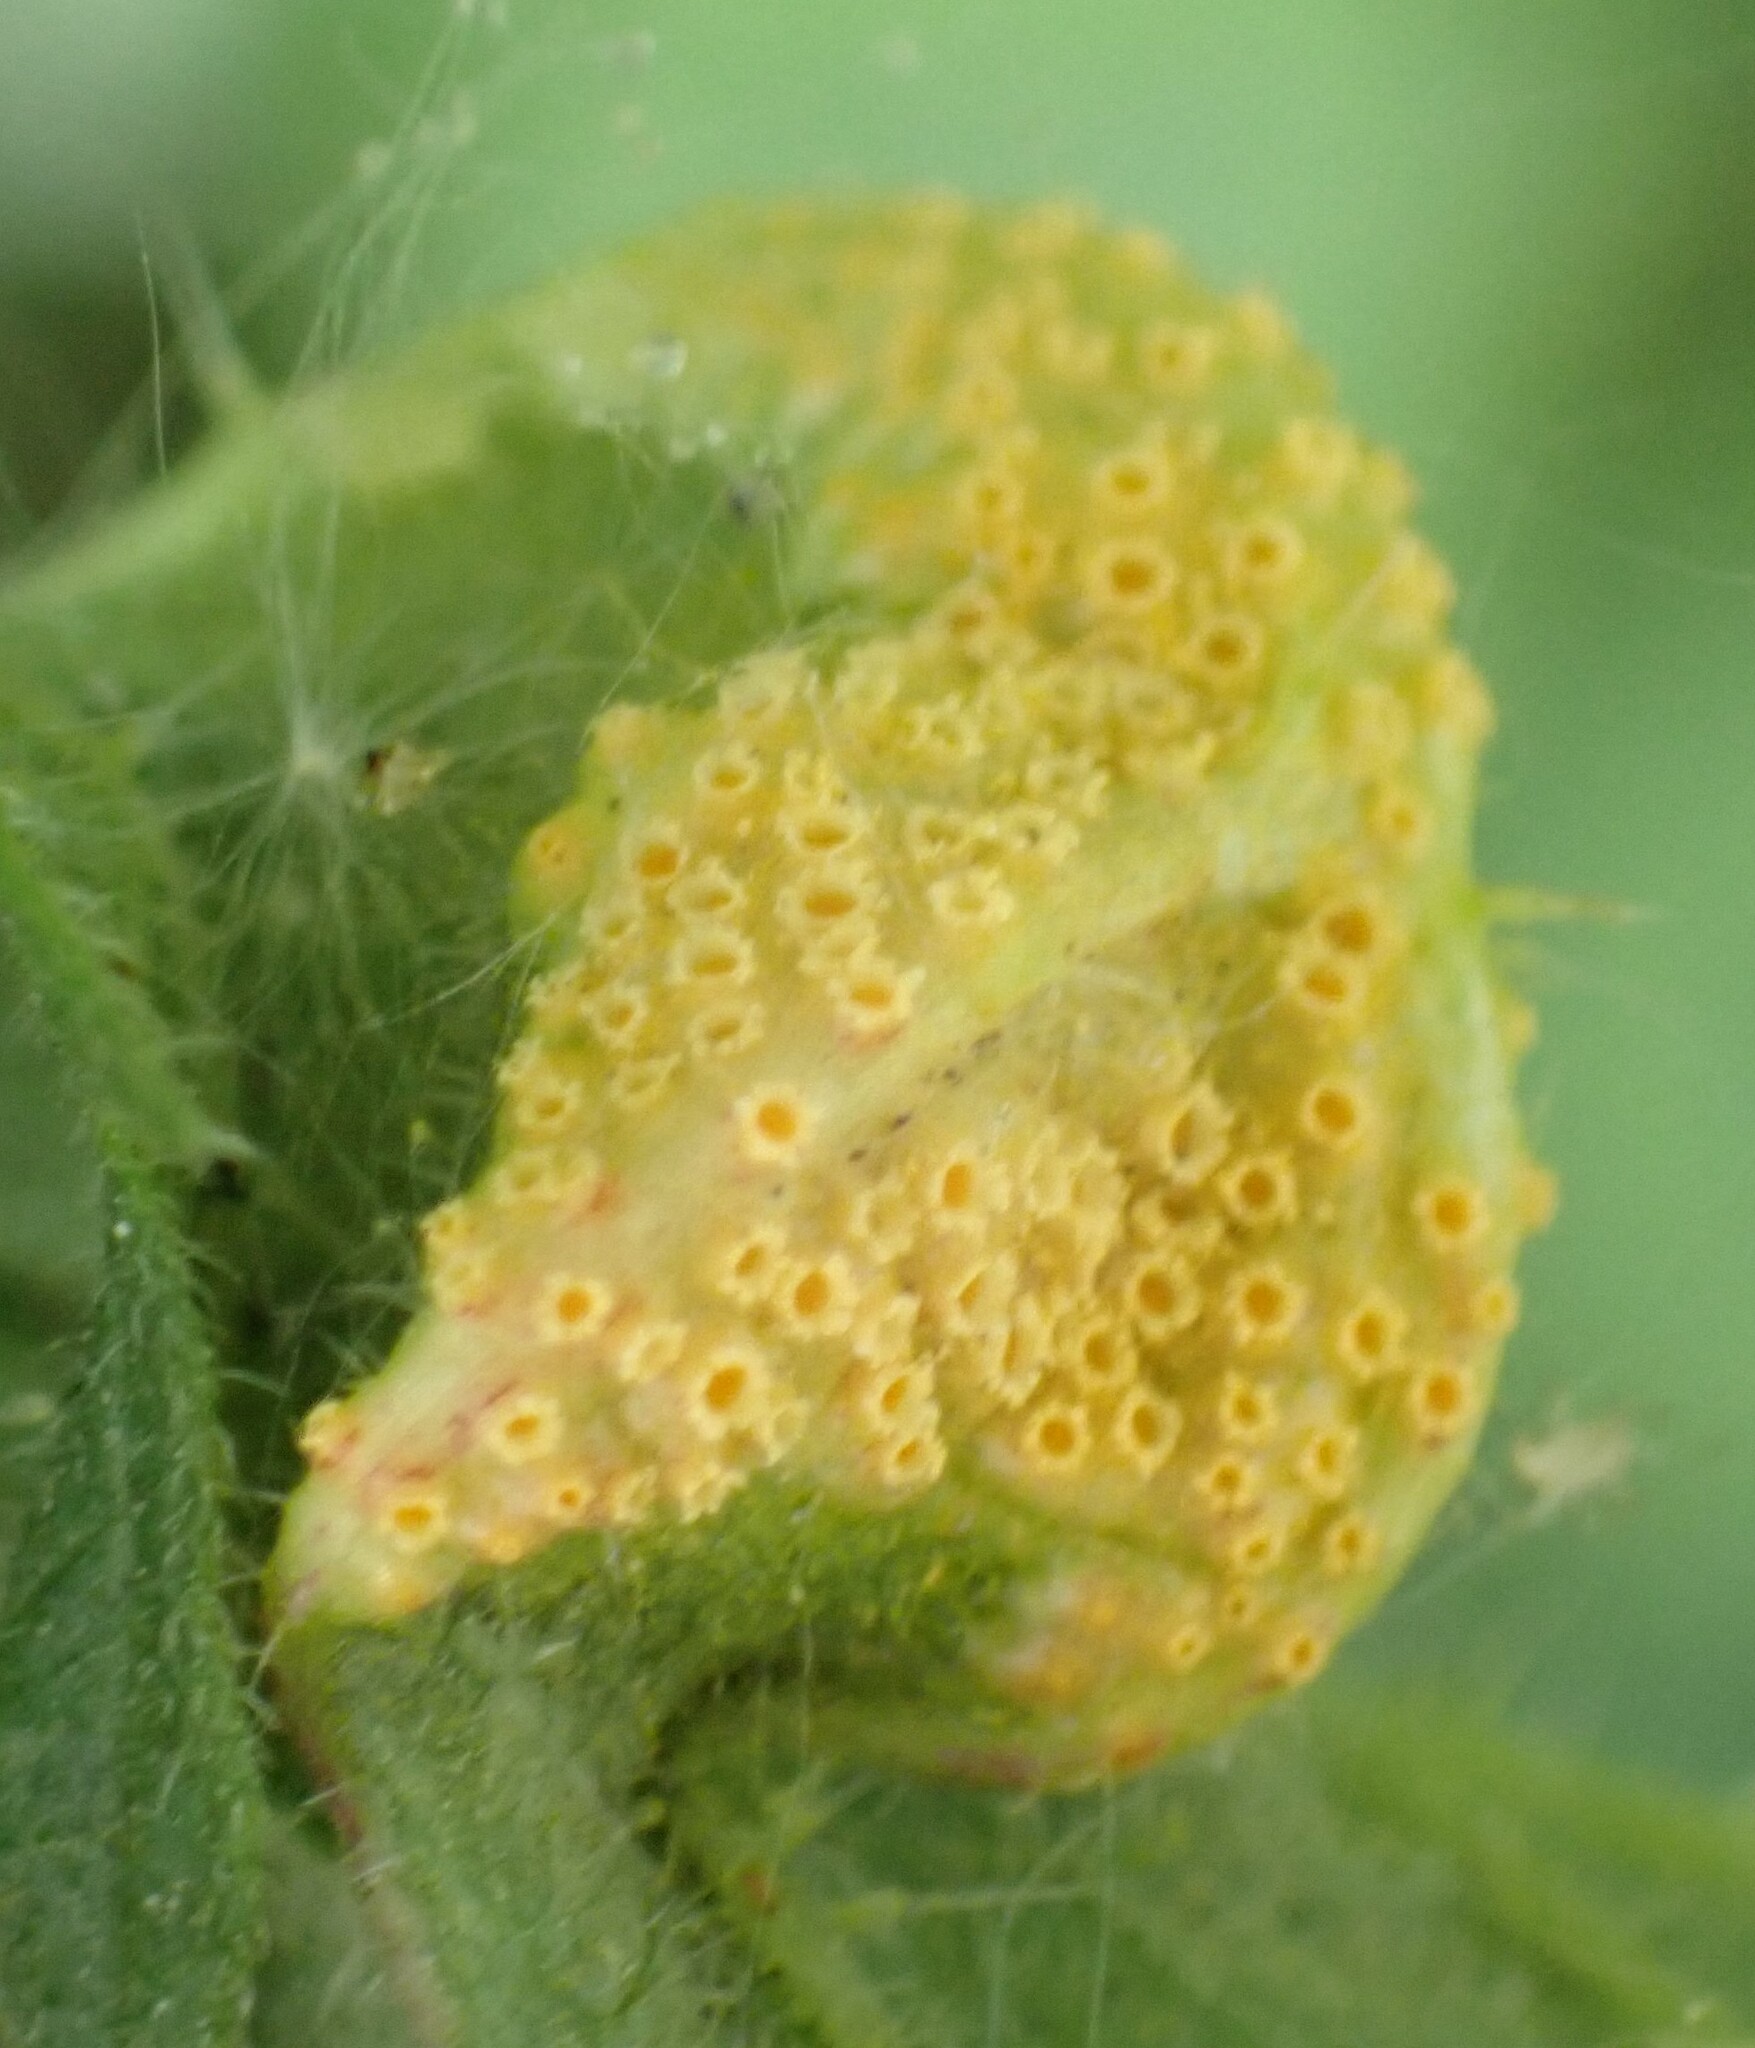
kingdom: Fungi
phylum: Basidiomycota
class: Pucciniomycetes
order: Pucciniales
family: Pucciniaceae
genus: Puccinia
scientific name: Puccinia urticata
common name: Nettle clustercup rust fungus
